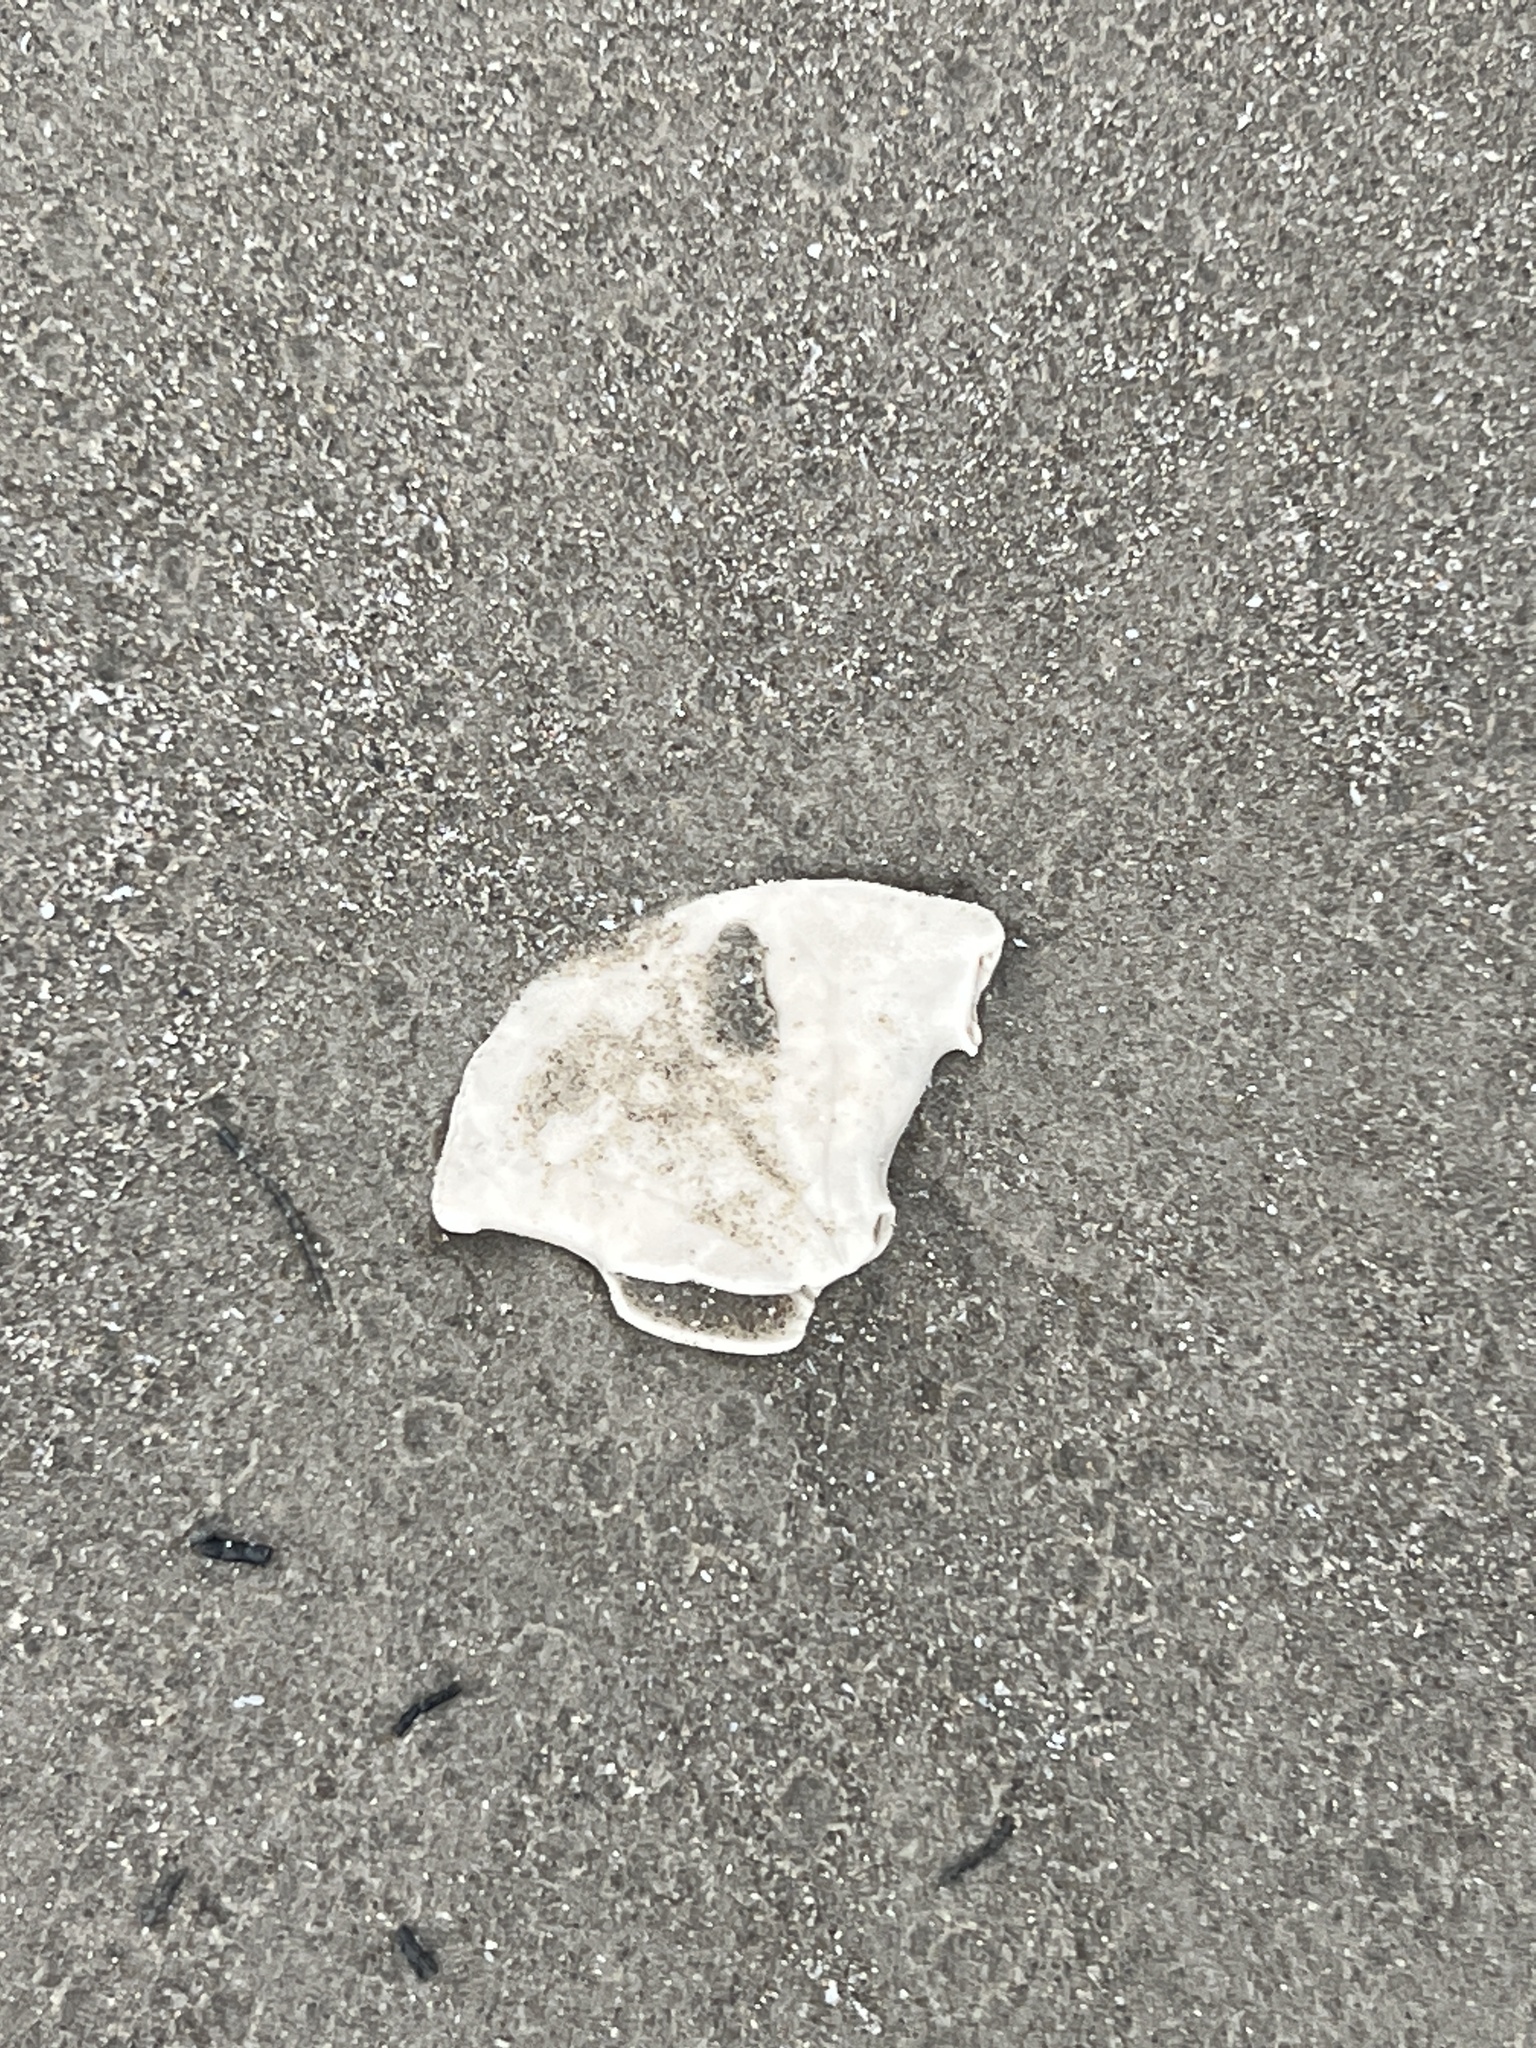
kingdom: Animalia
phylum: Echinodermata
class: Echinoidea
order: Echinolampadacea
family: Mellitidae
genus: Mellita
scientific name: Mellita quinquiesperforata
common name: Sand dollar
